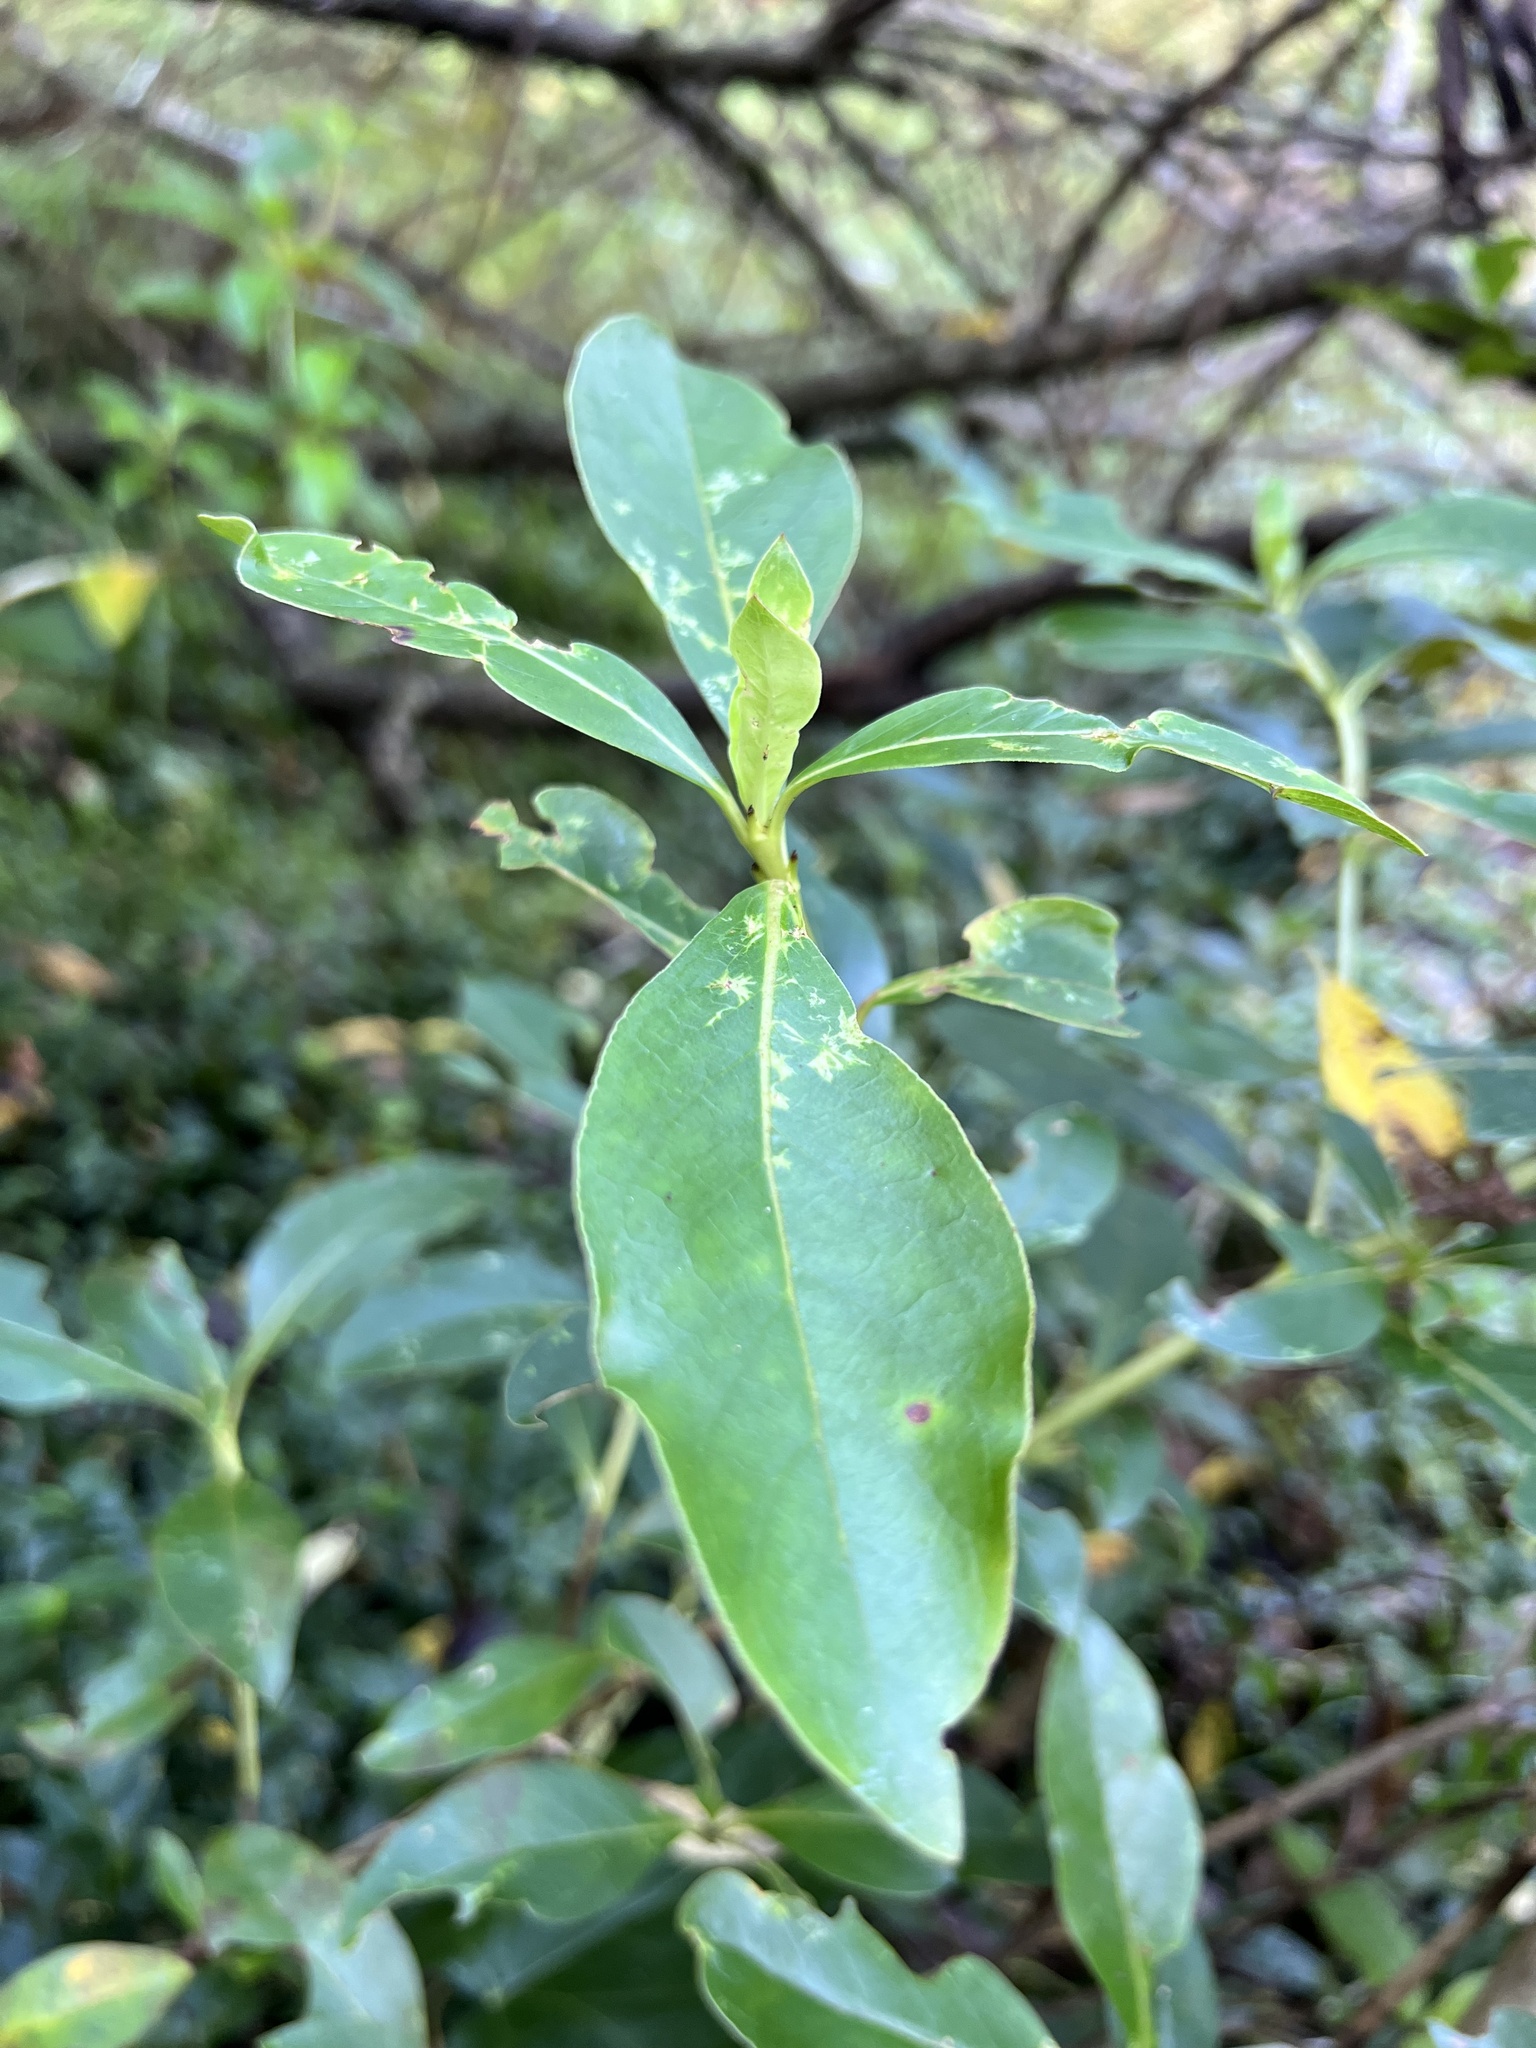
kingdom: Plantae
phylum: Tracheophyta
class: Magnoliopsida
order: Gentianales
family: Rubiaceae
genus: Coprosma
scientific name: Coprosma robusta
